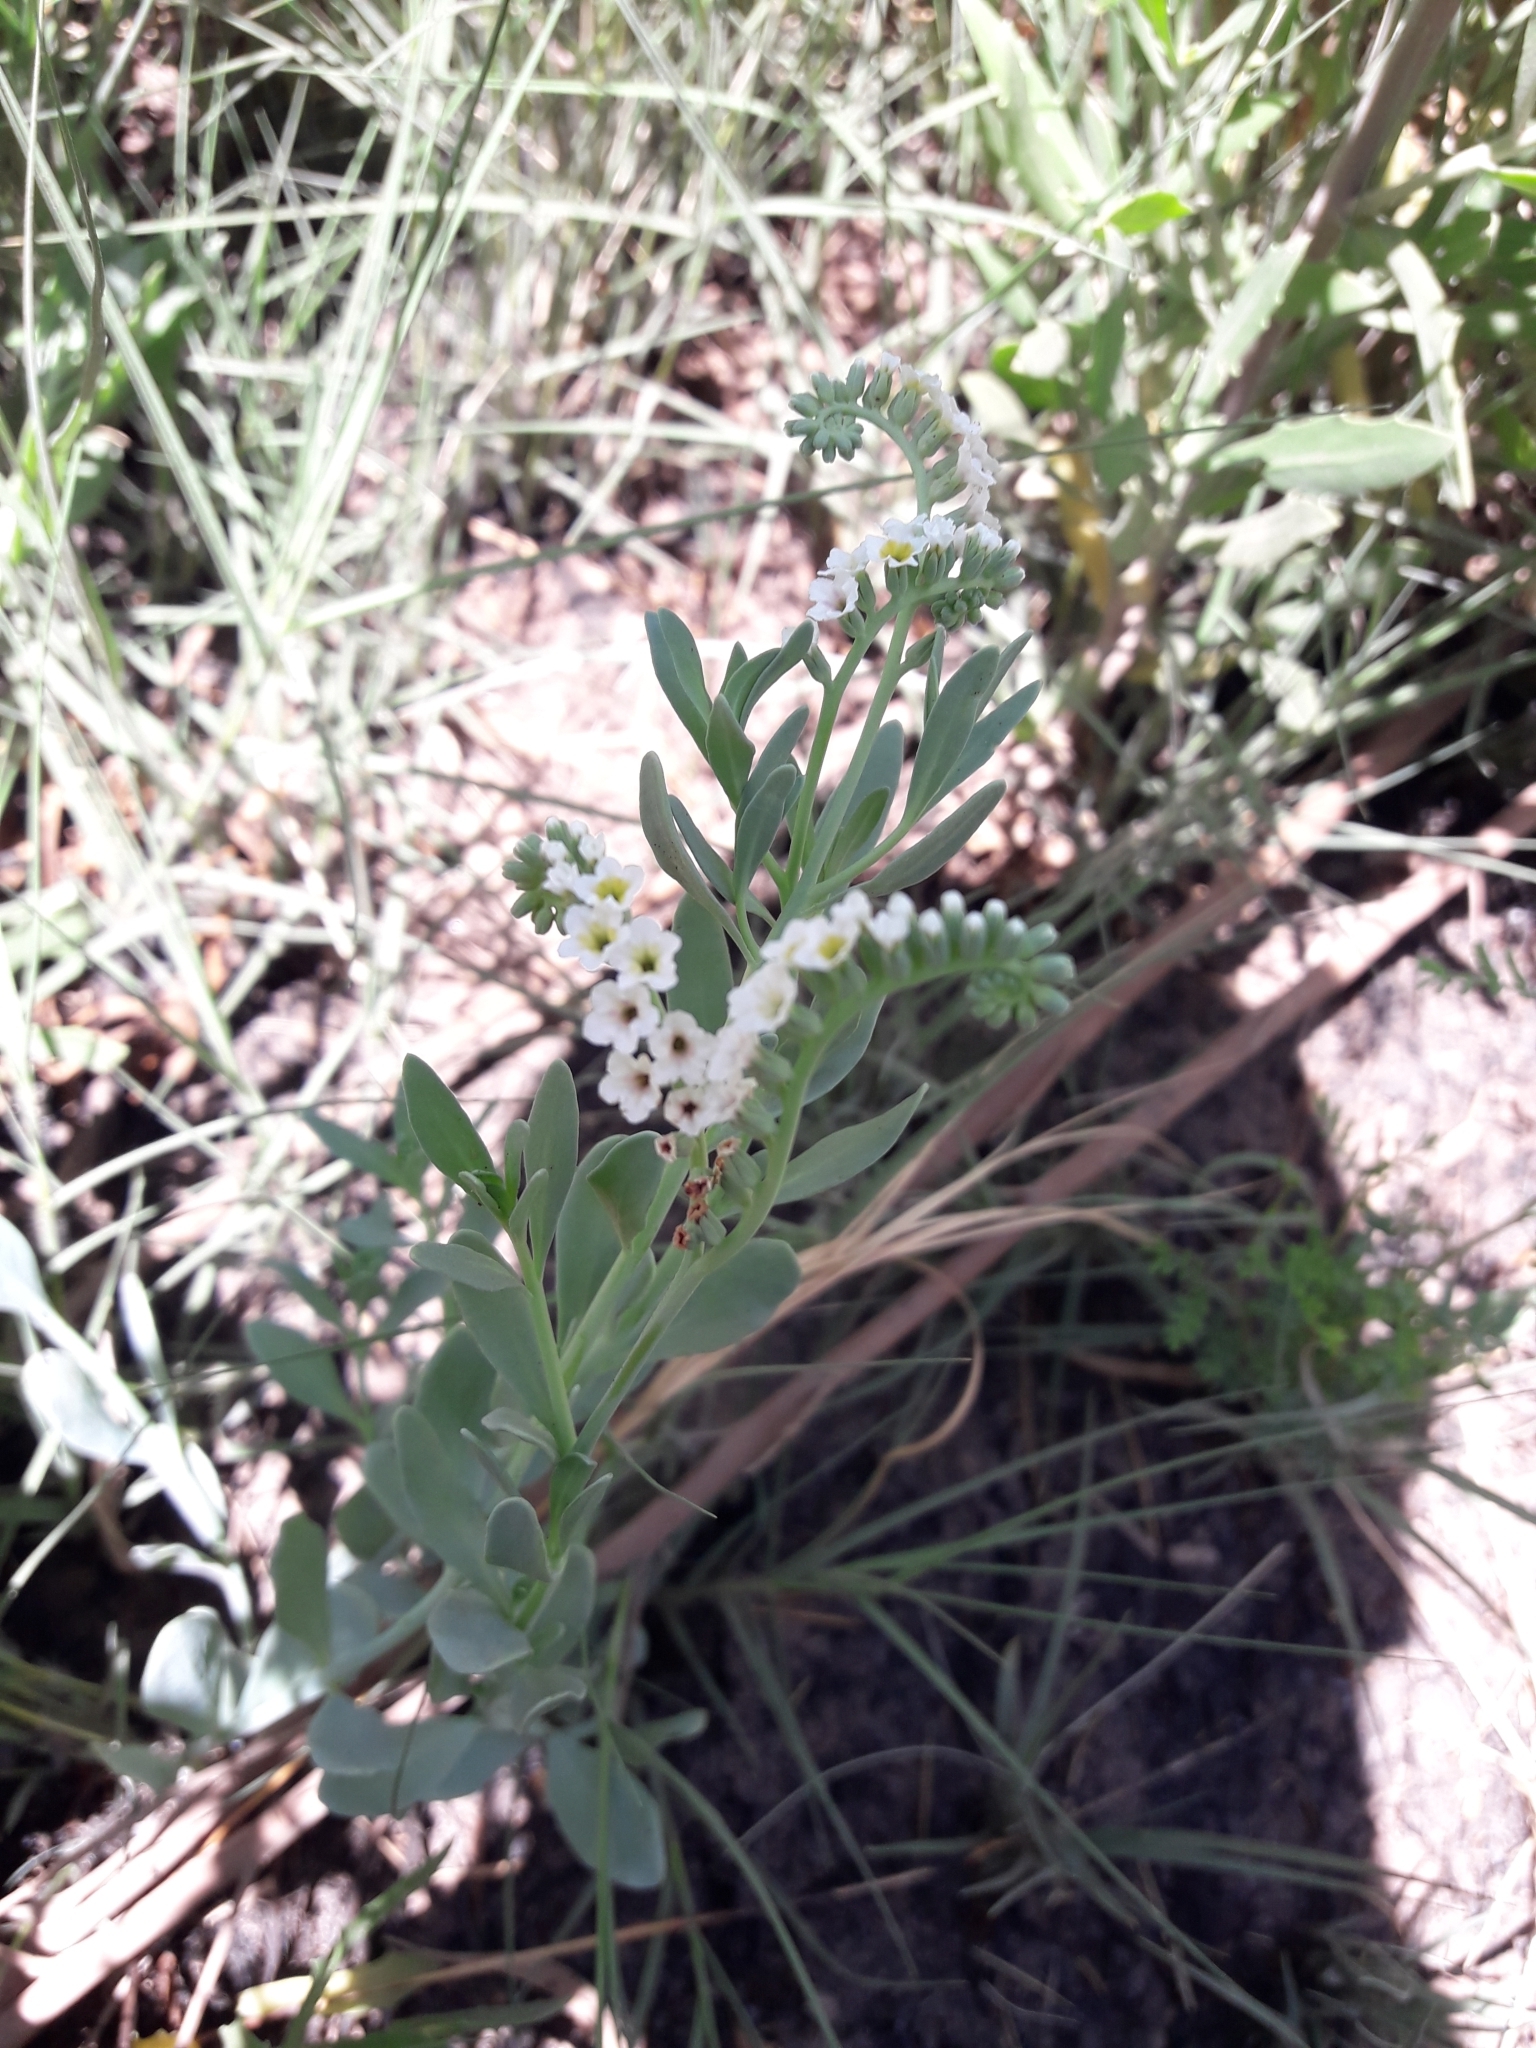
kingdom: Plantae
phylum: Tracheophyta
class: Magnoliopsida
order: Boraginales
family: Heliotropiaceae
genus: Heliotropium
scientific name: Heliotropium curassavicum
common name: Seaside heliotrope
